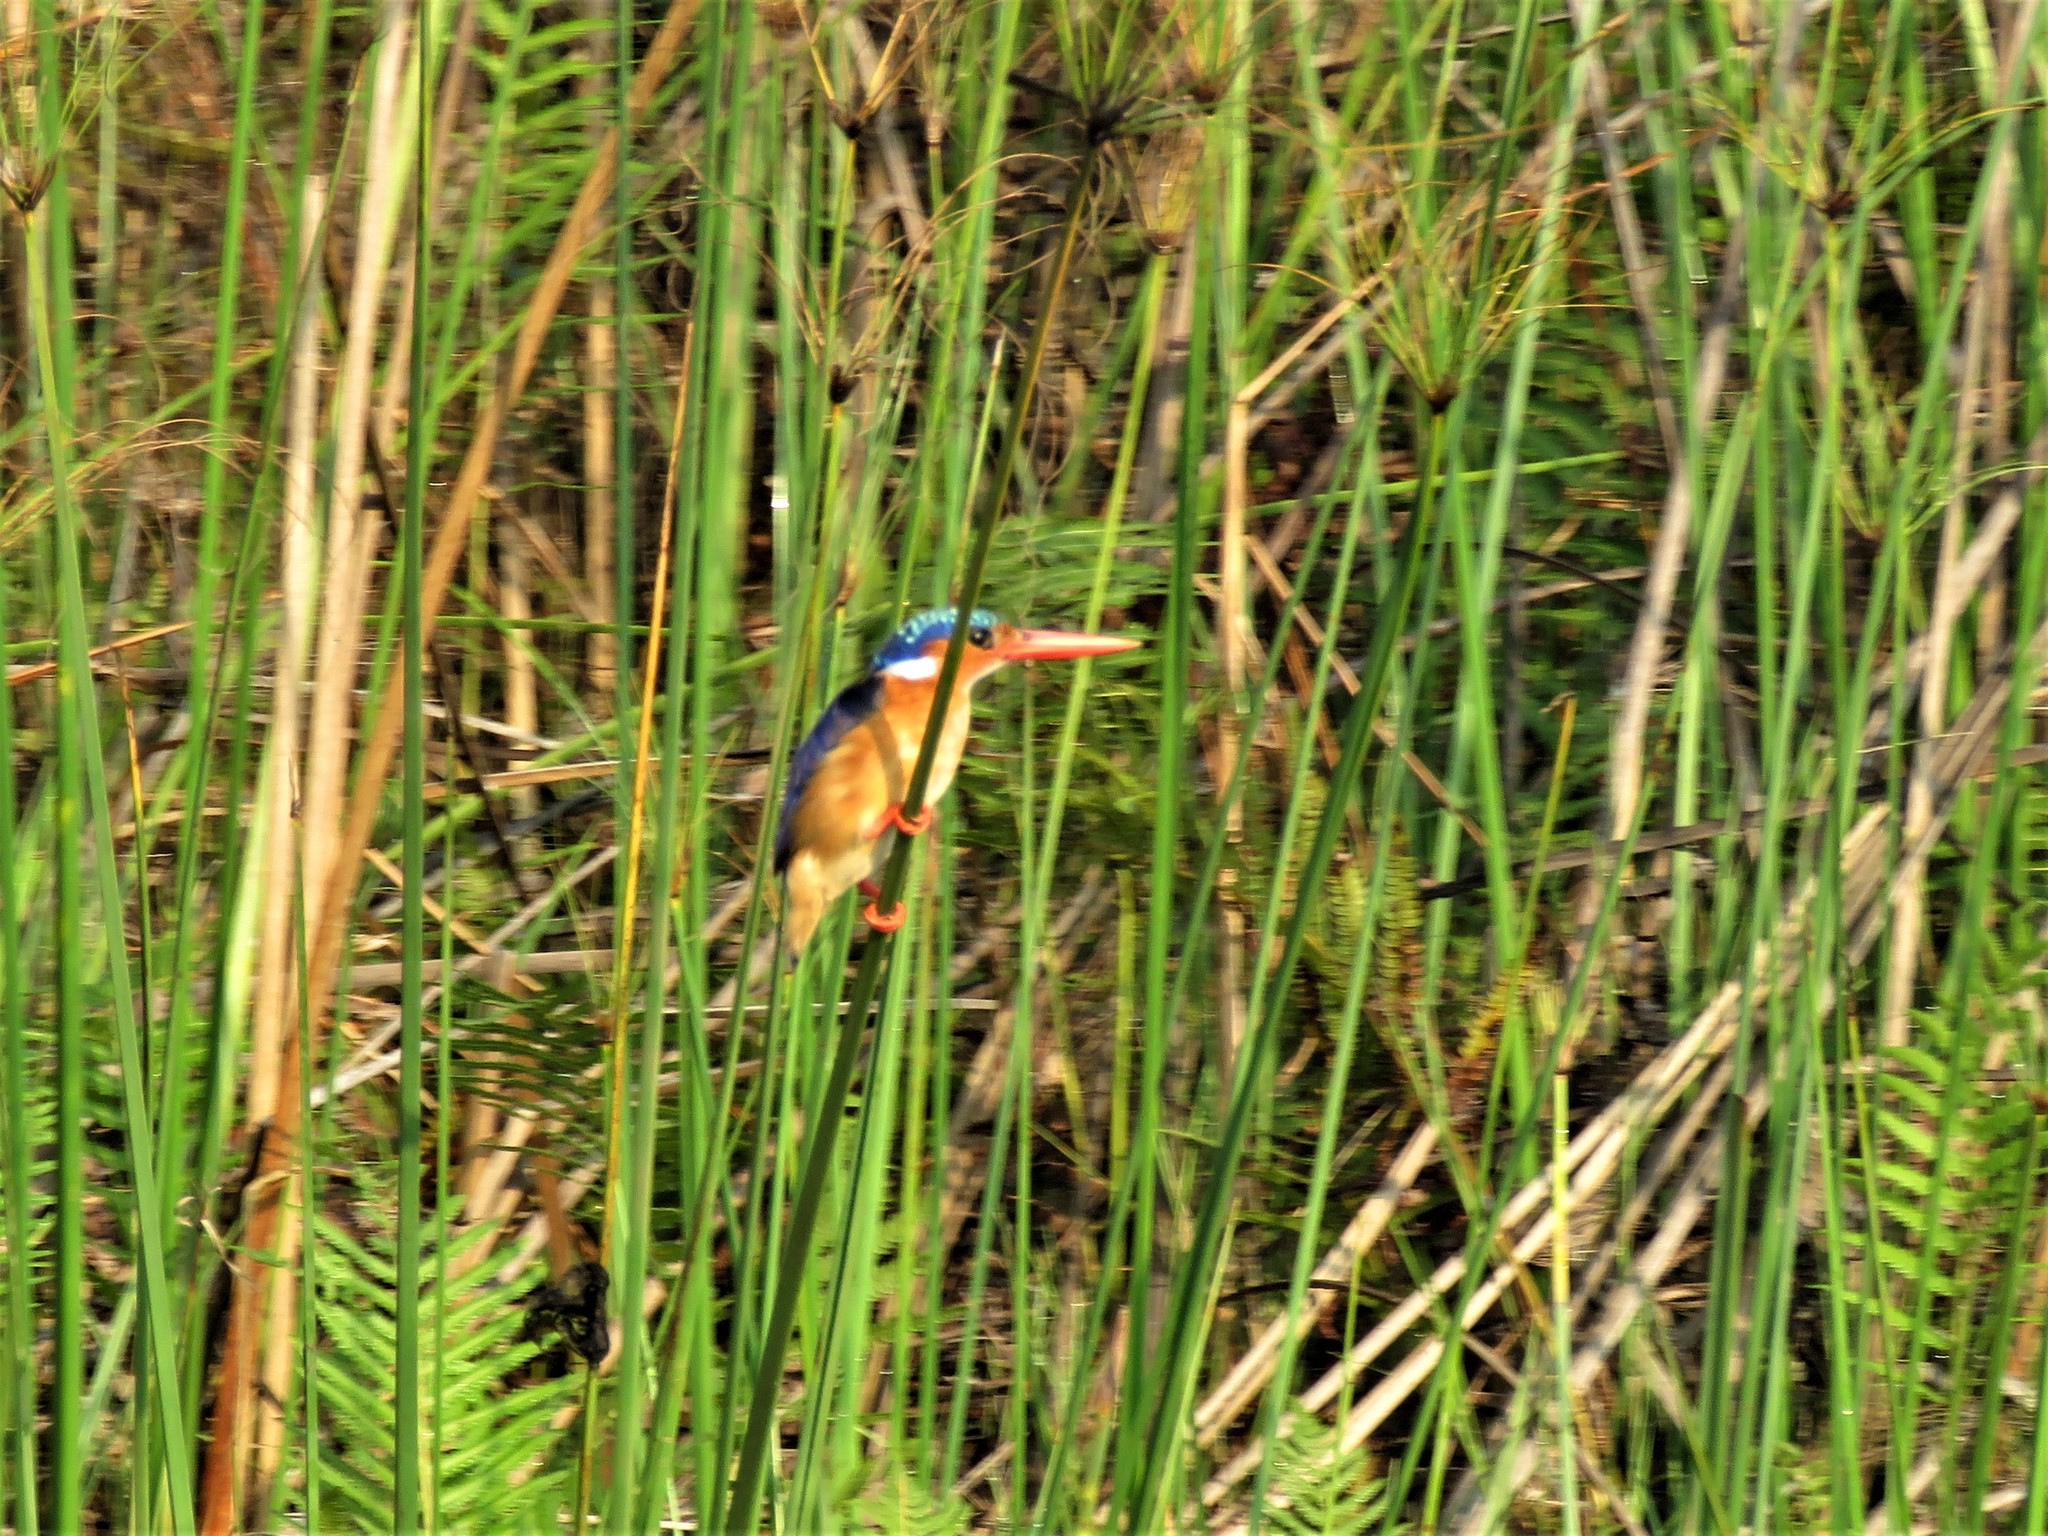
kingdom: Animalia
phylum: Chordata
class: Aves
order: Coraciiformes
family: Alcedinidae
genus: Corythornis
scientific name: Corythornis cristatus
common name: Malachite kingfisher
